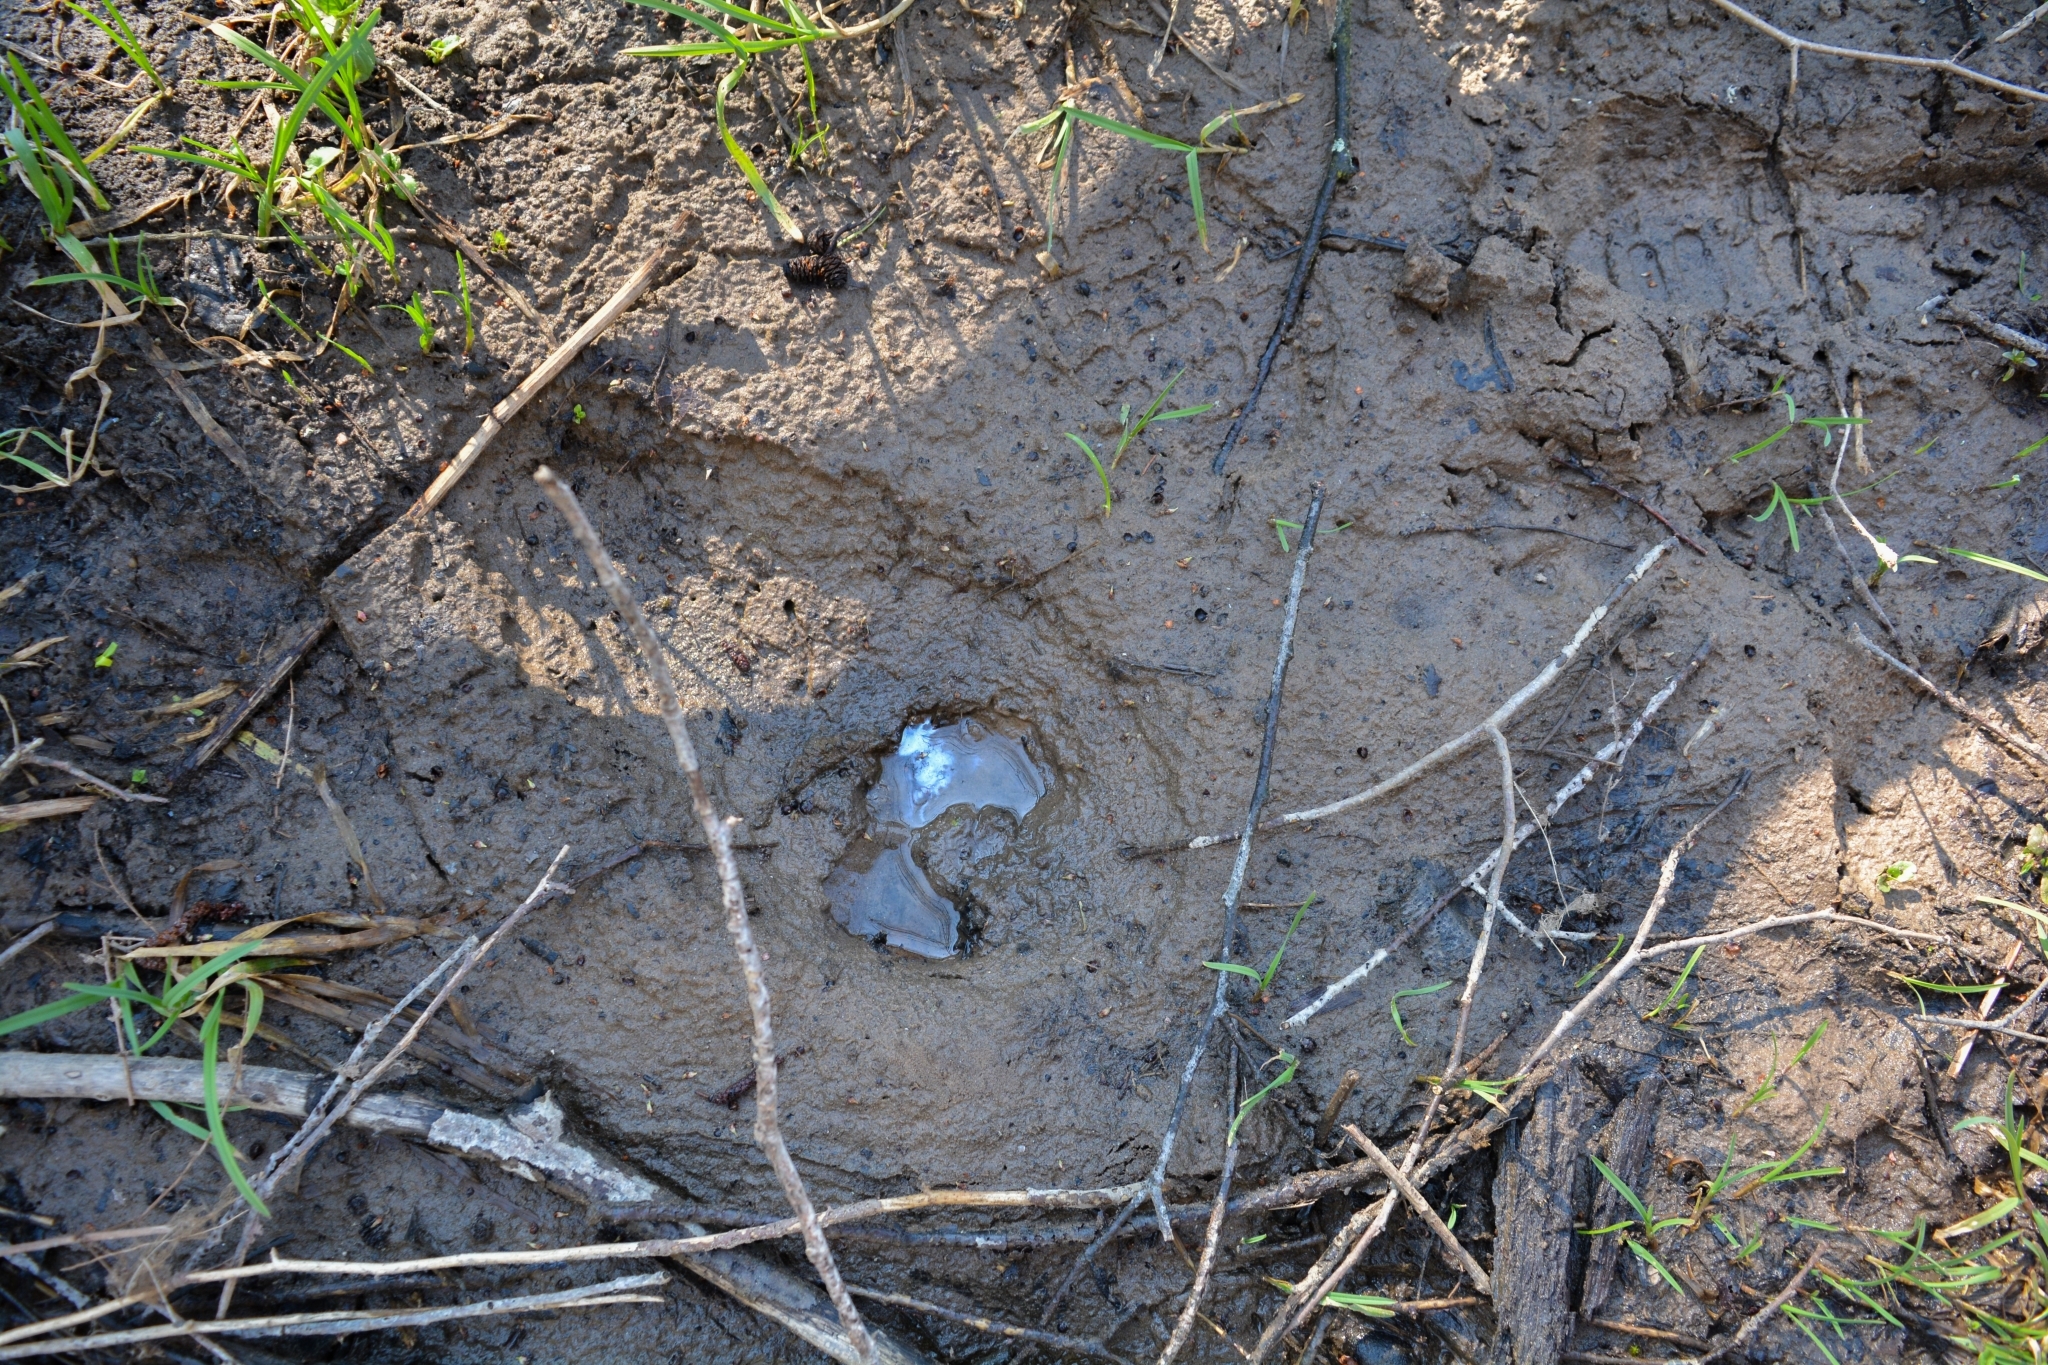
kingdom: Animalia
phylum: Chordata
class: Mammalia
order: Artiodactyla
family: Cervidae
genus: Alces
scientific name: Alces alces
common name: Moose
